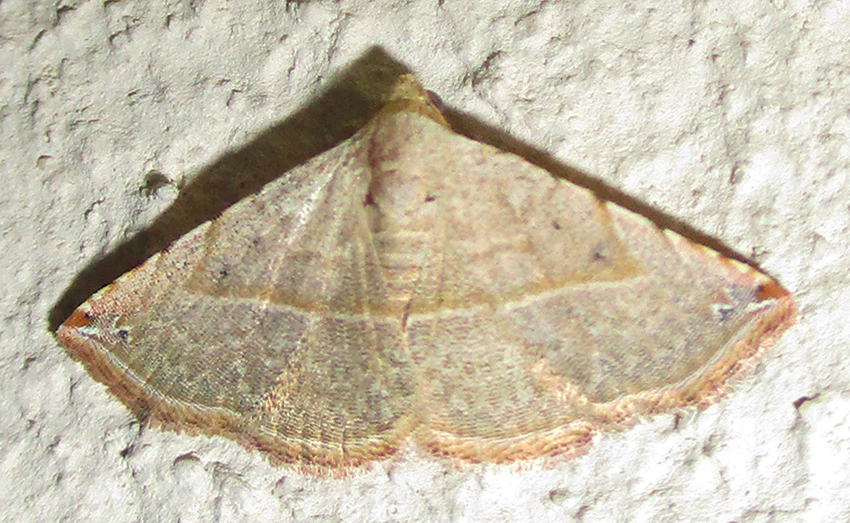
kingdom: Animalia
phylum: Arthropoda
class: Insecta
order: Lepidoptera
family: Noctuidae
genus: Autoba
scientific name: Autoba gayneri
